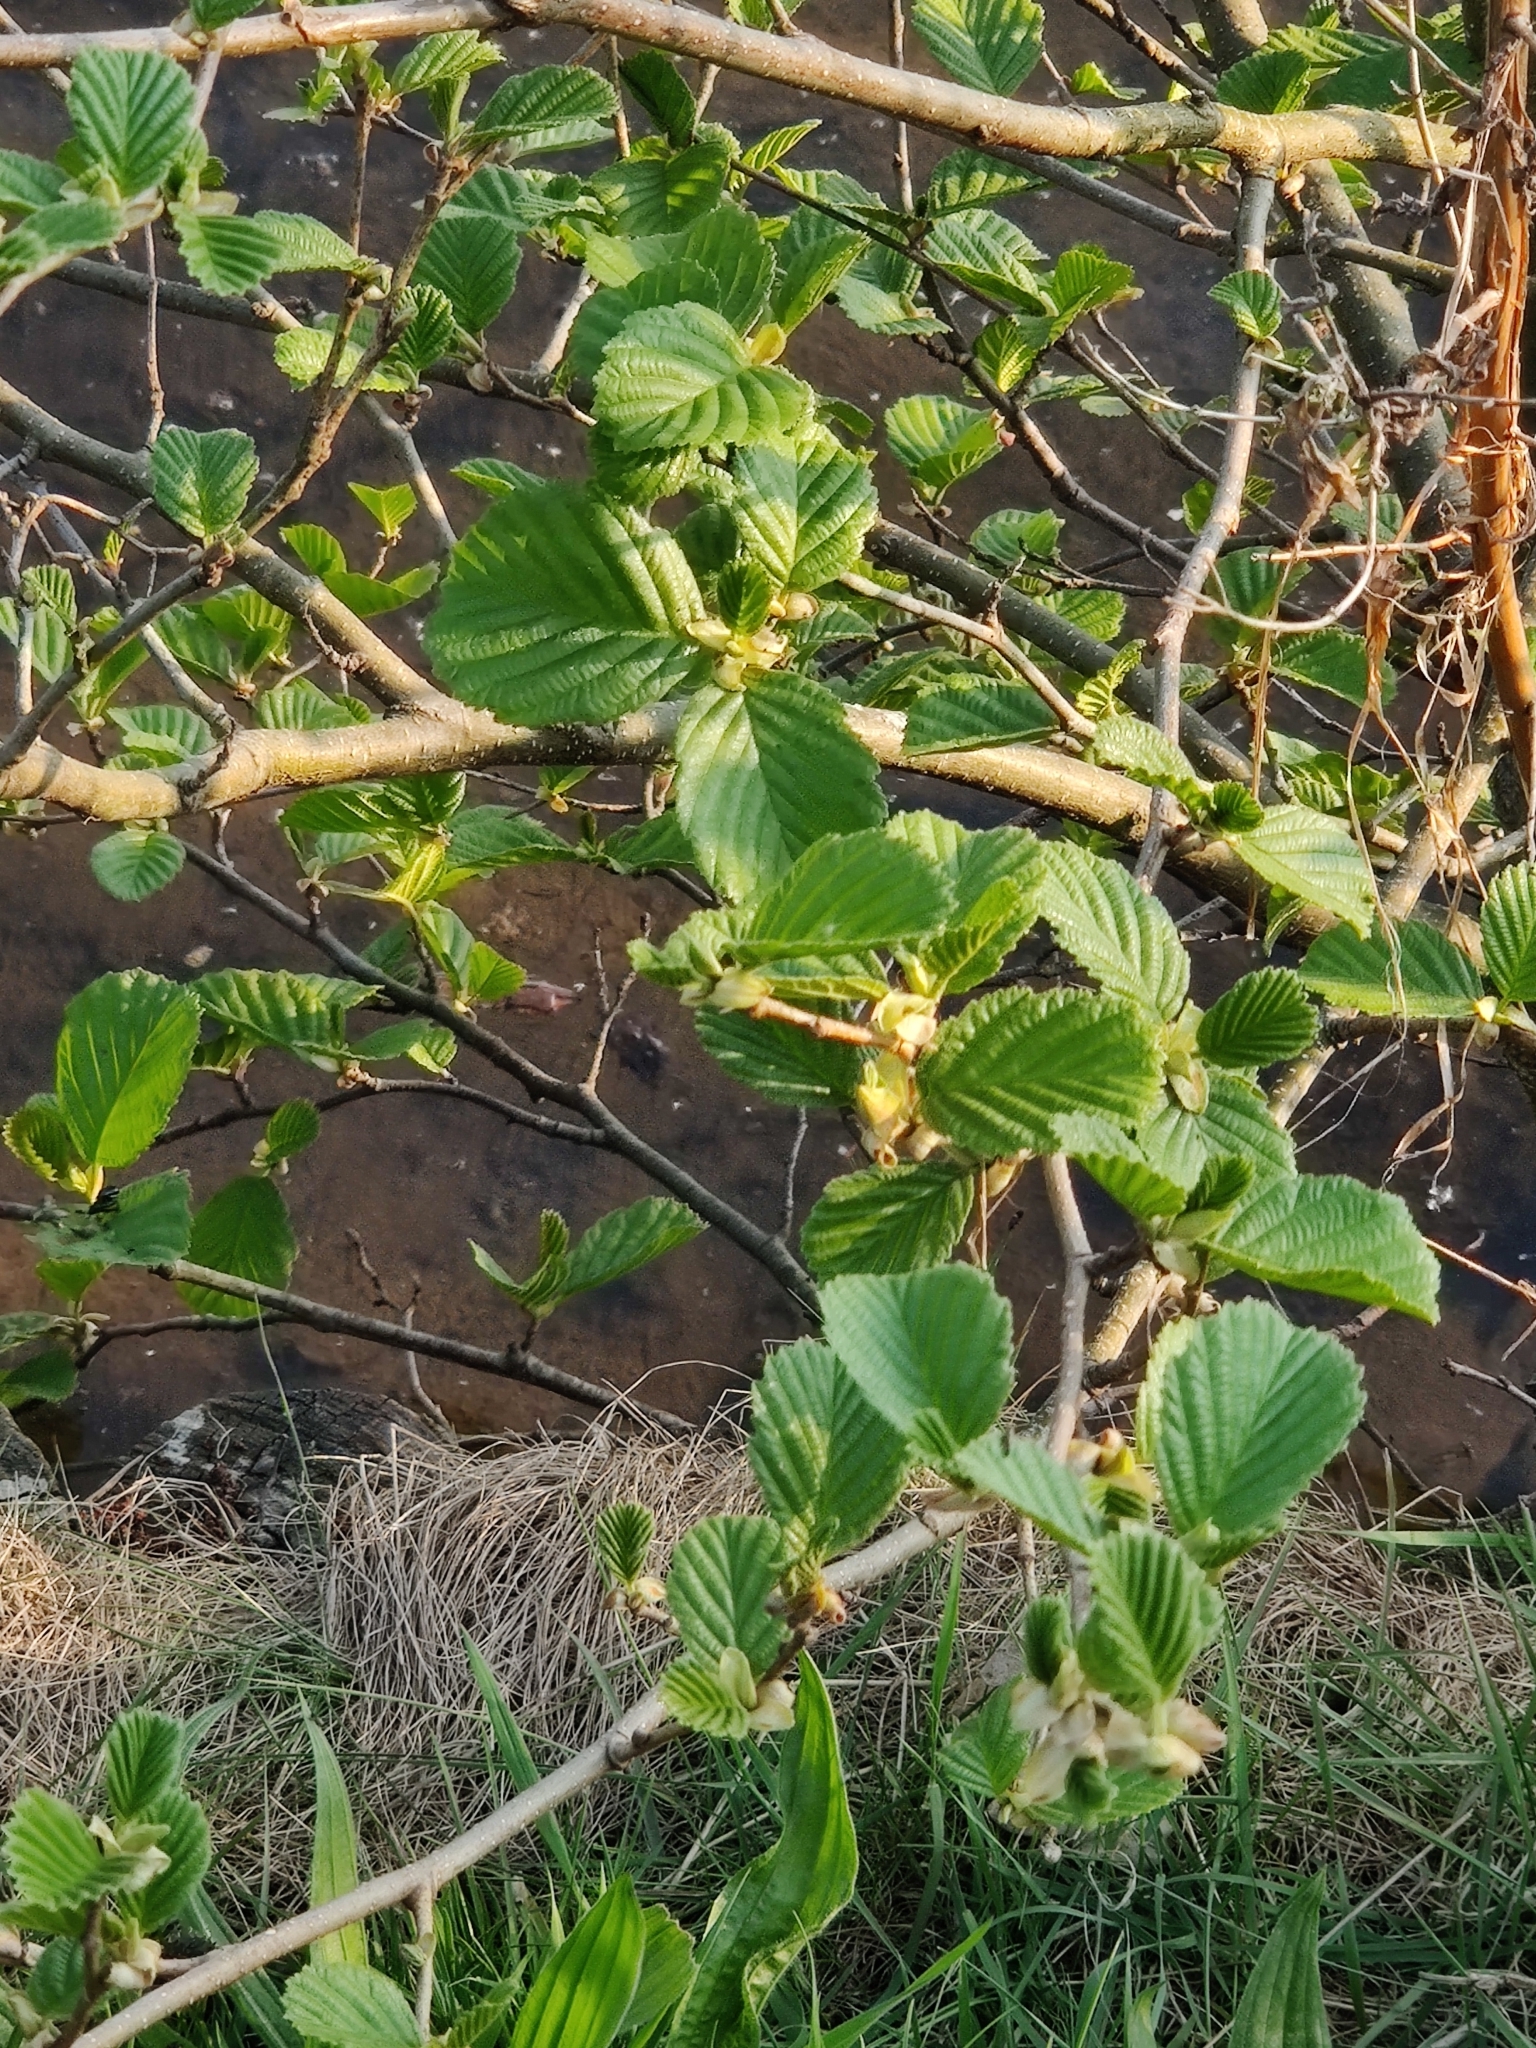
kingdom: Plantae
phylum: Tracheophyta
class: Magnoliopsida
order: Fagales
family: Betulaceae
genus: Alnus
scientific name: Alnus glutinosa
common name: Black alder
